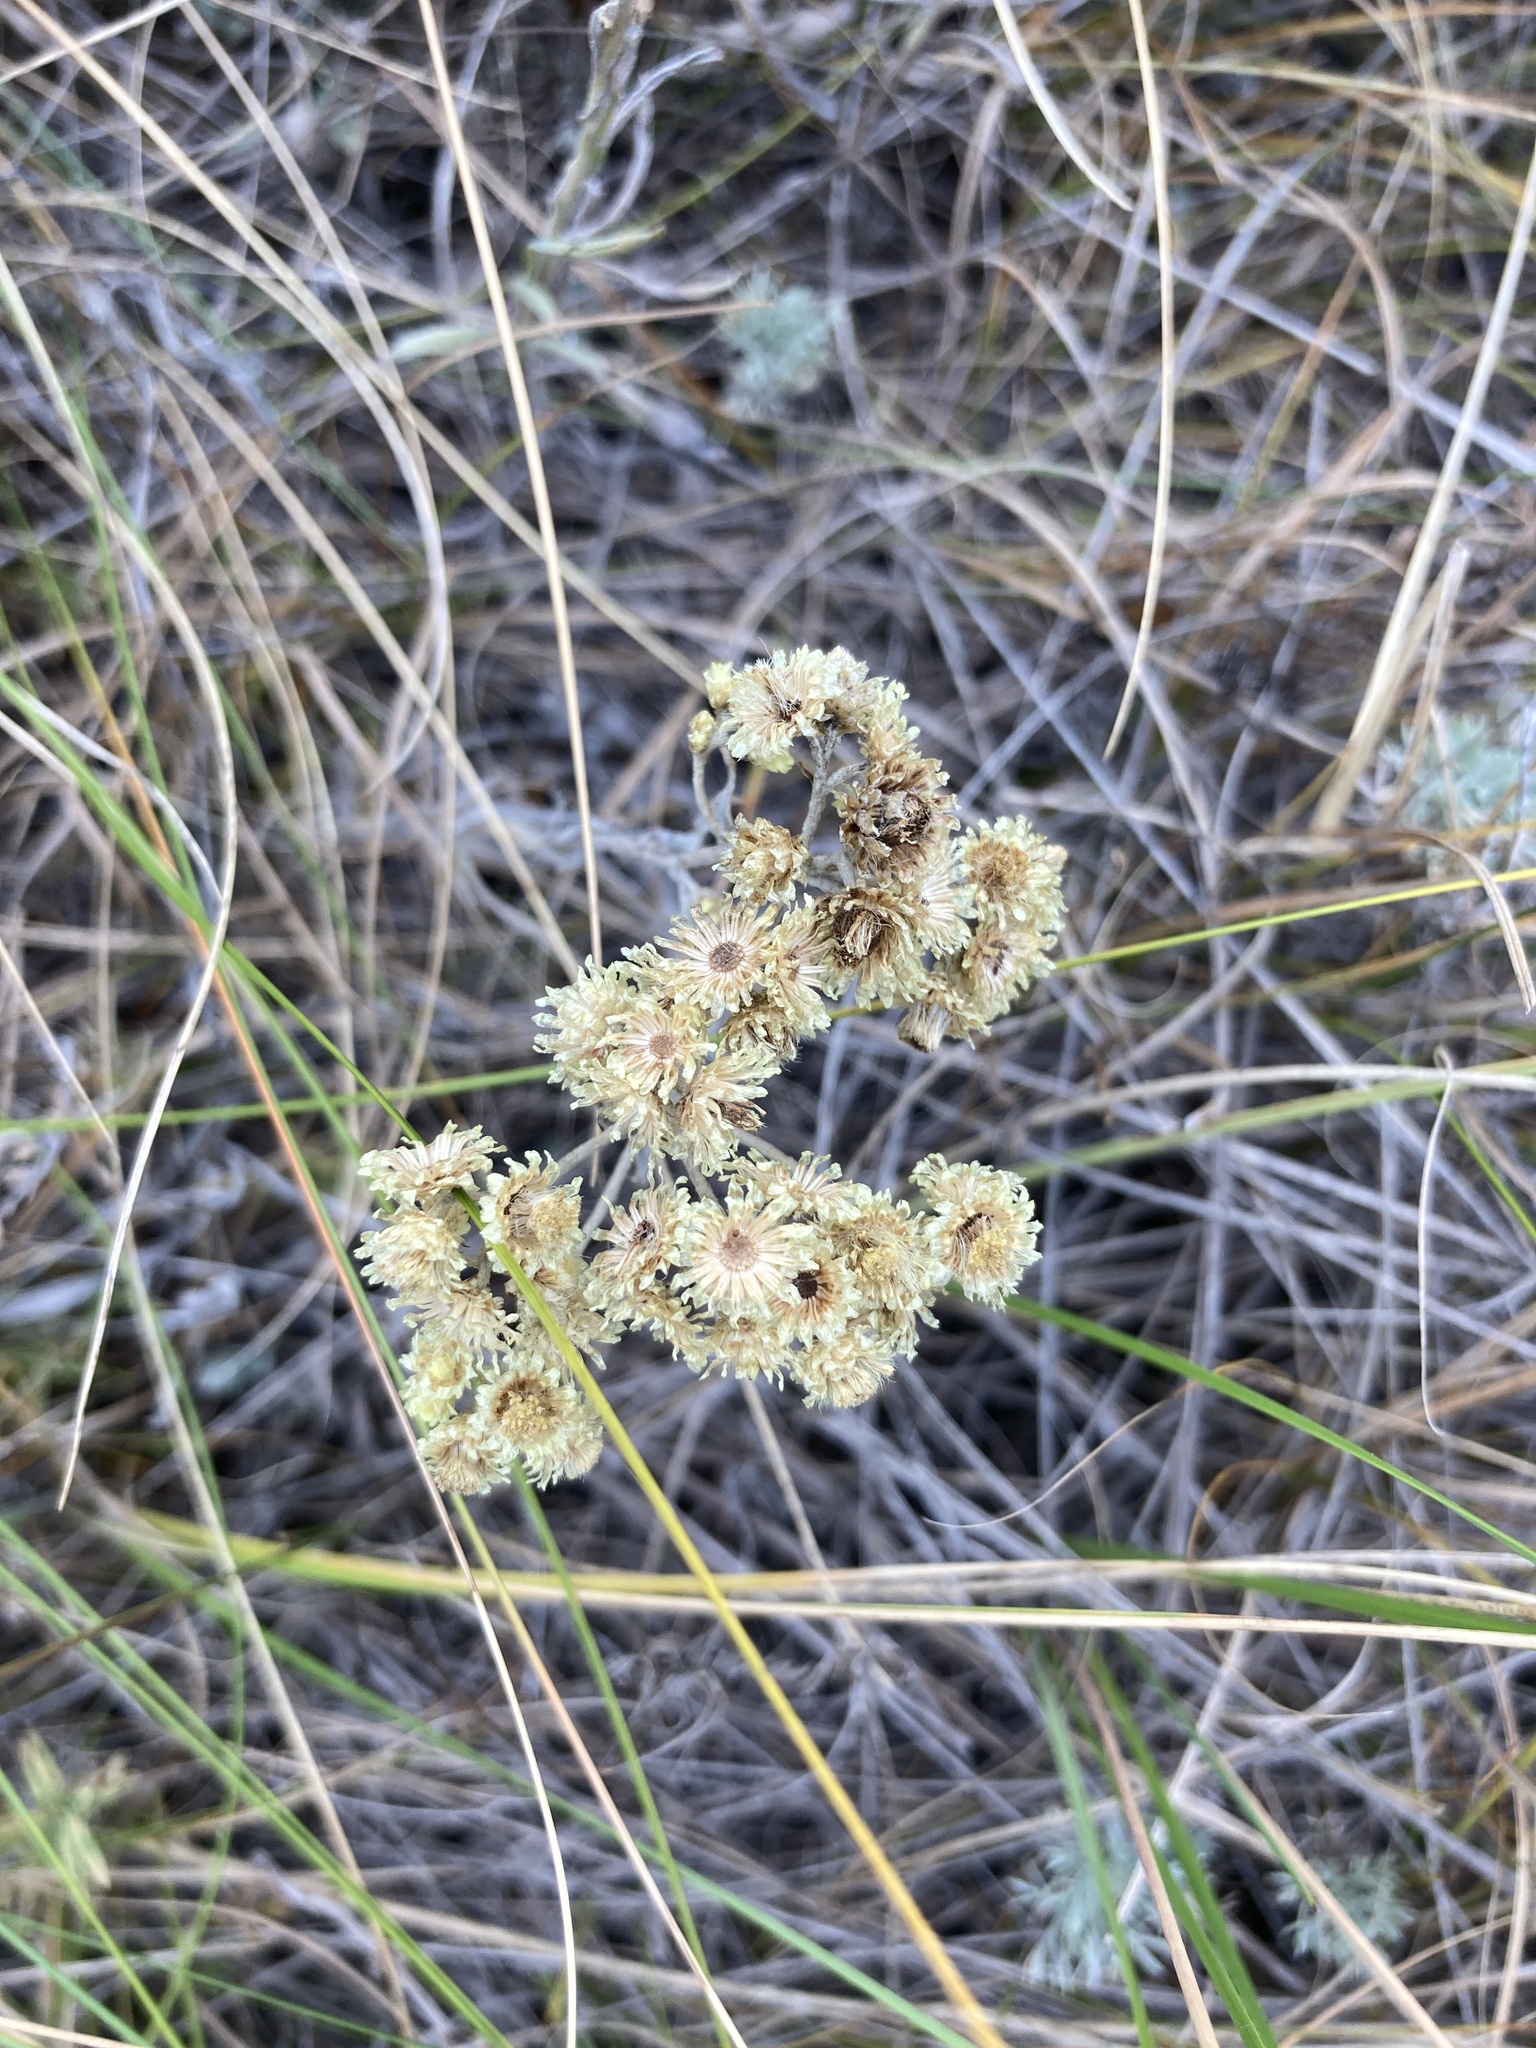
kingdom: Plantae
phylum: Tracheophyta
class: Magnoliopsida
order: Asterales
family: Asteraceae
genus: Helichrysum
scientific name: Helichrysum arenarium
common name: Strawflower
